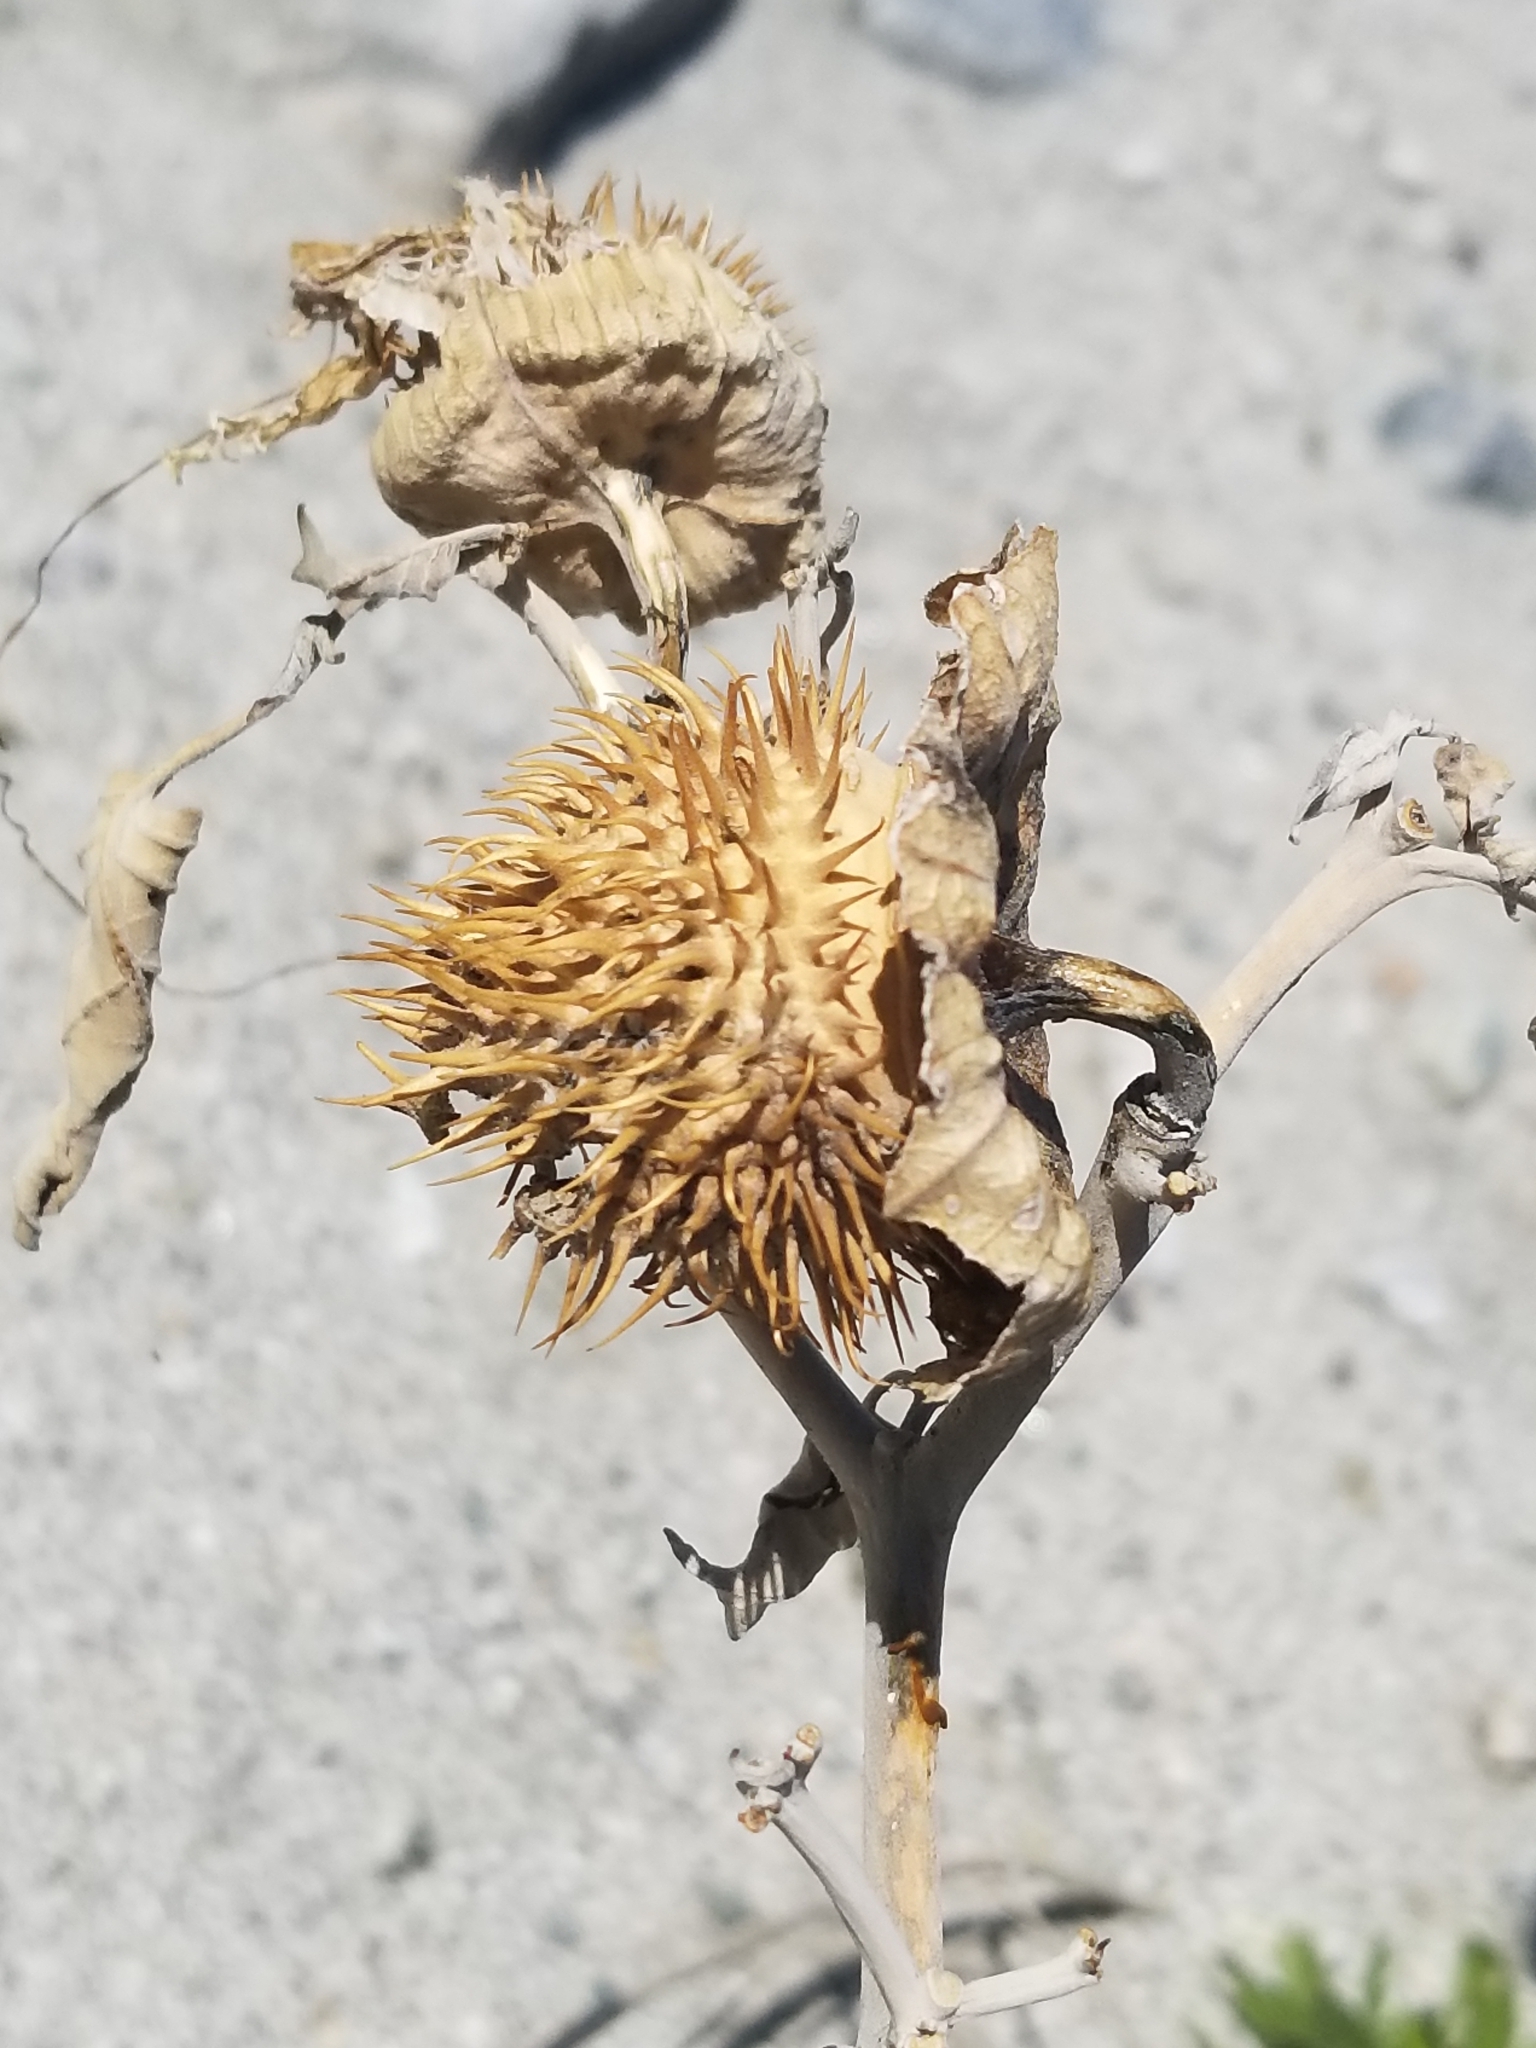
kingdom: Plantae
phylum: Tracheophyta
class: Magnoliopsida
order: Solanales
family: Solanaceae
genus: Datura
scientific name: Datura wrightii
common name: Sacred thorn-apple
